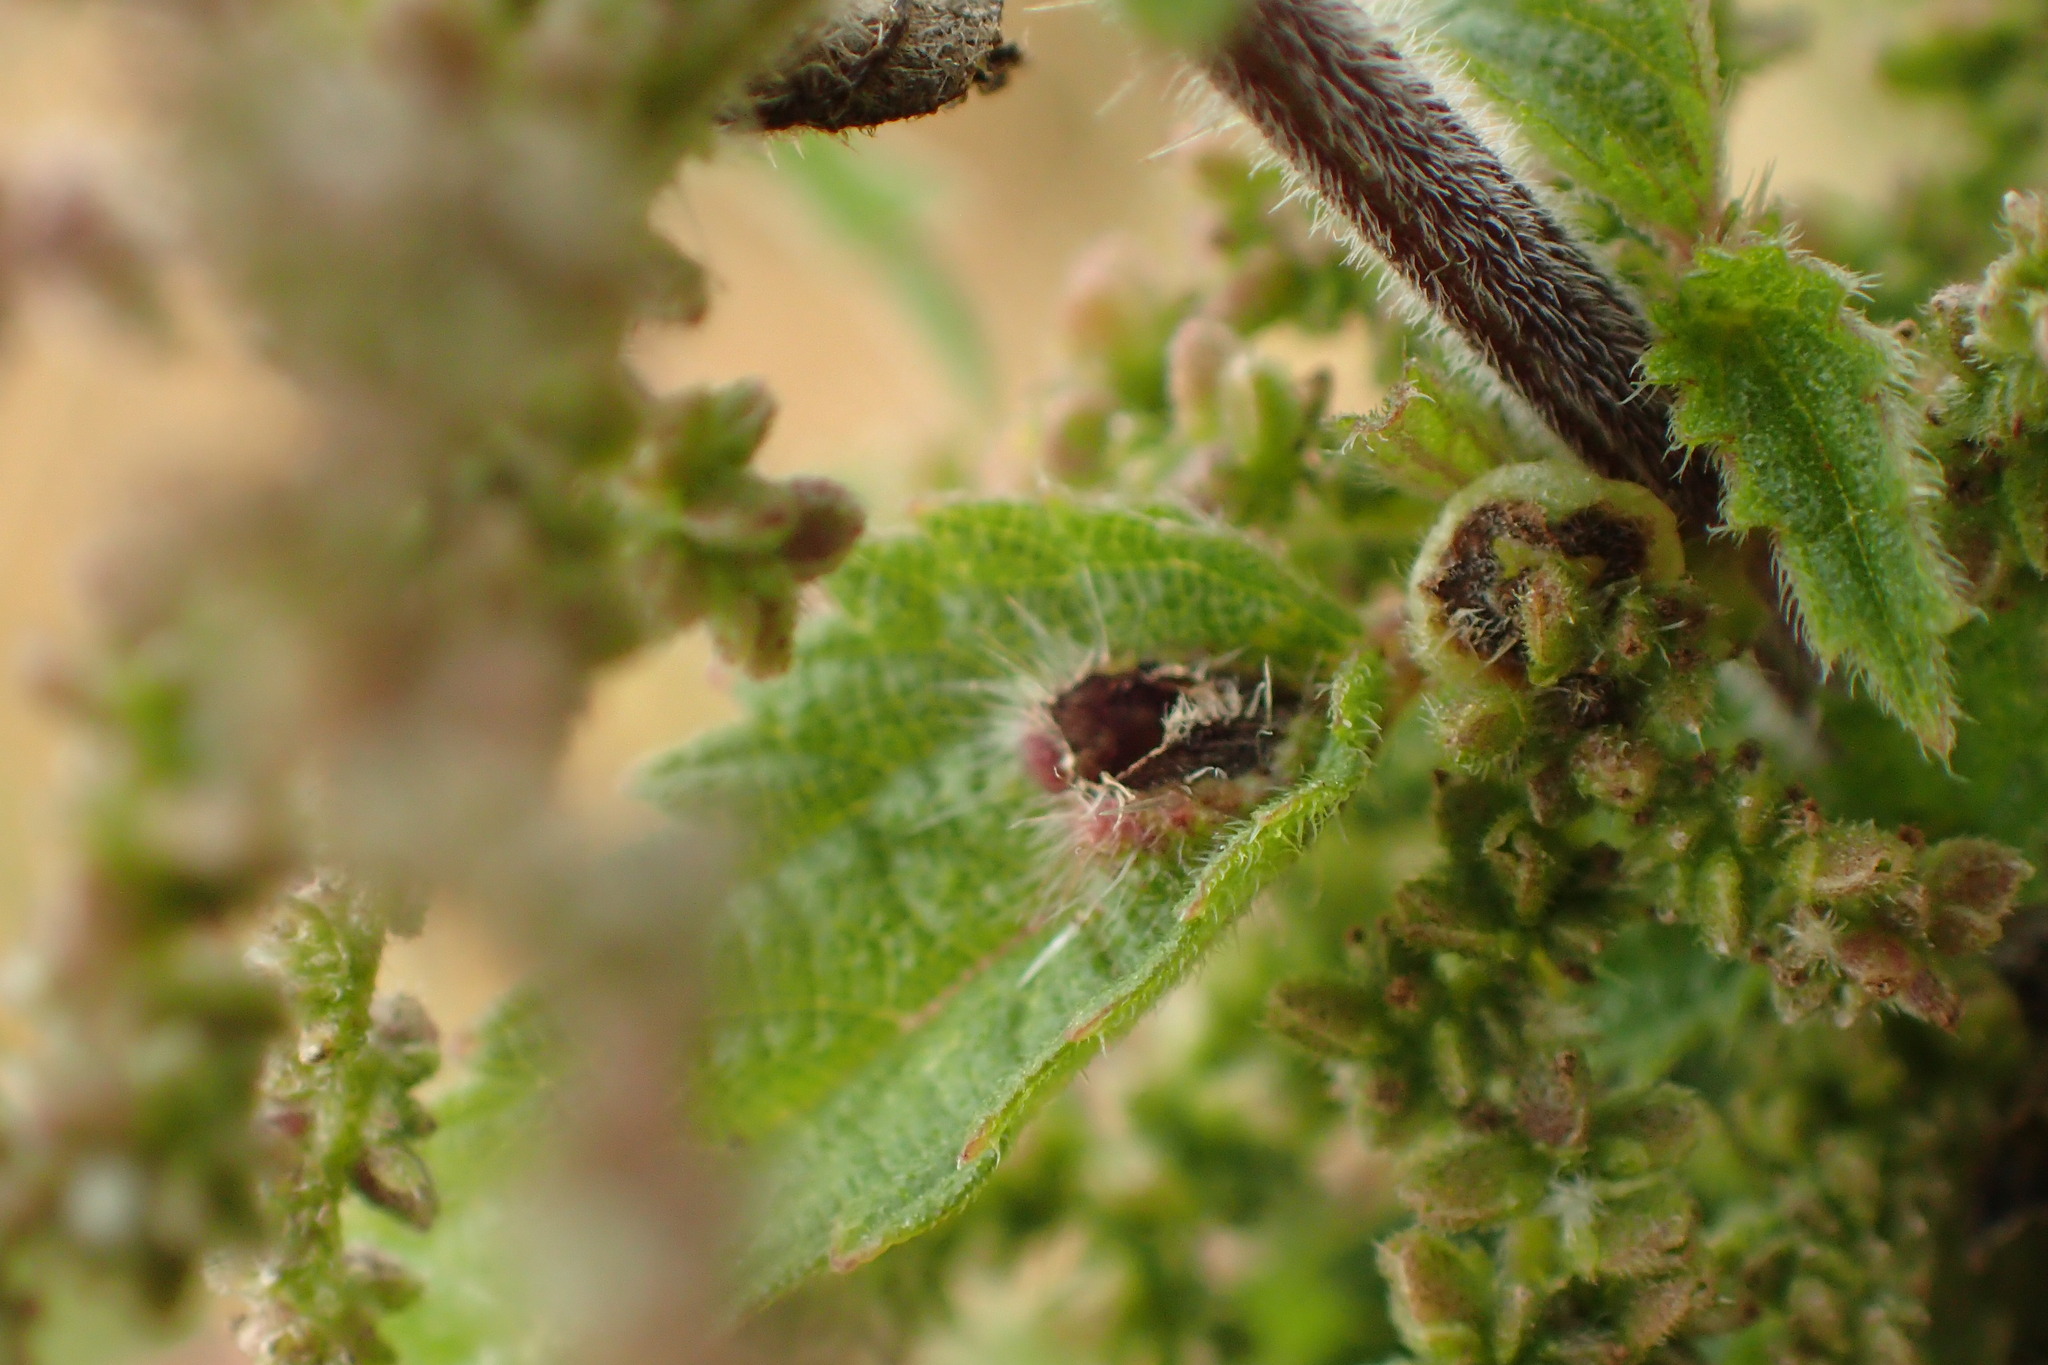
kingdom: Animalia
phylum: Arthropoda
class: Insecta
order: Diptera
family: Cecidomyiidae
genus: Dasineura
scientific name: Dasineura urticae
